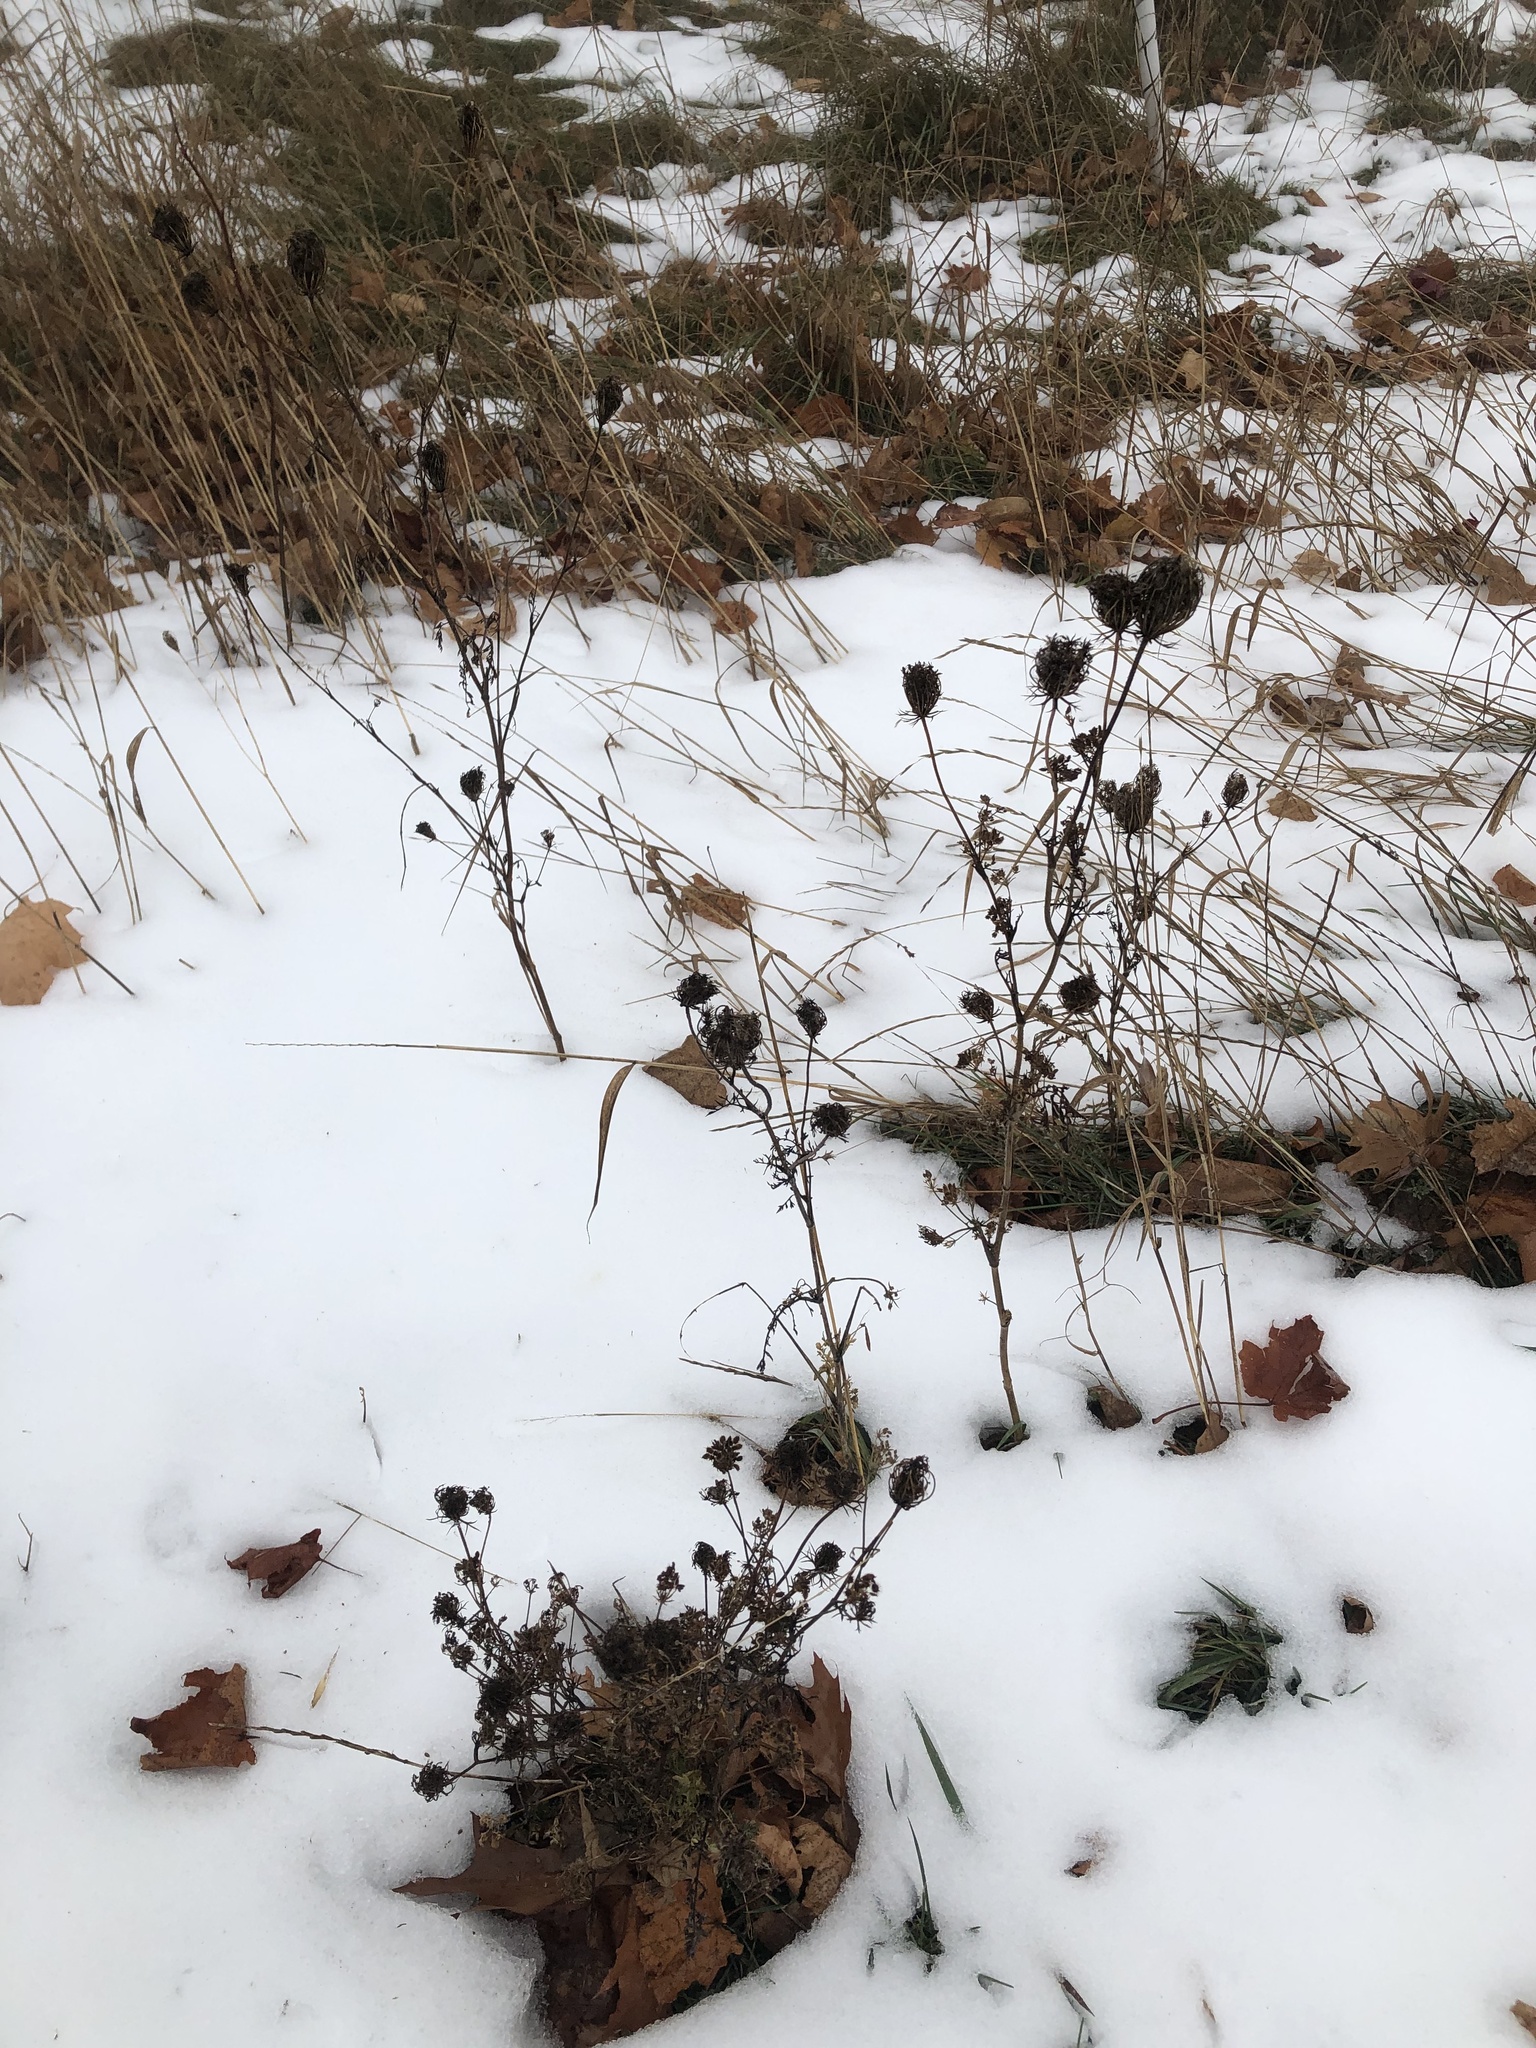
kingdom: Plantae
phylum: Tracheophyta
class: Magnoliopsida
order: Apiales
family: Apiaceae
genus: Daucus
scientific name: Daucus carota
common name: Wild carrot
